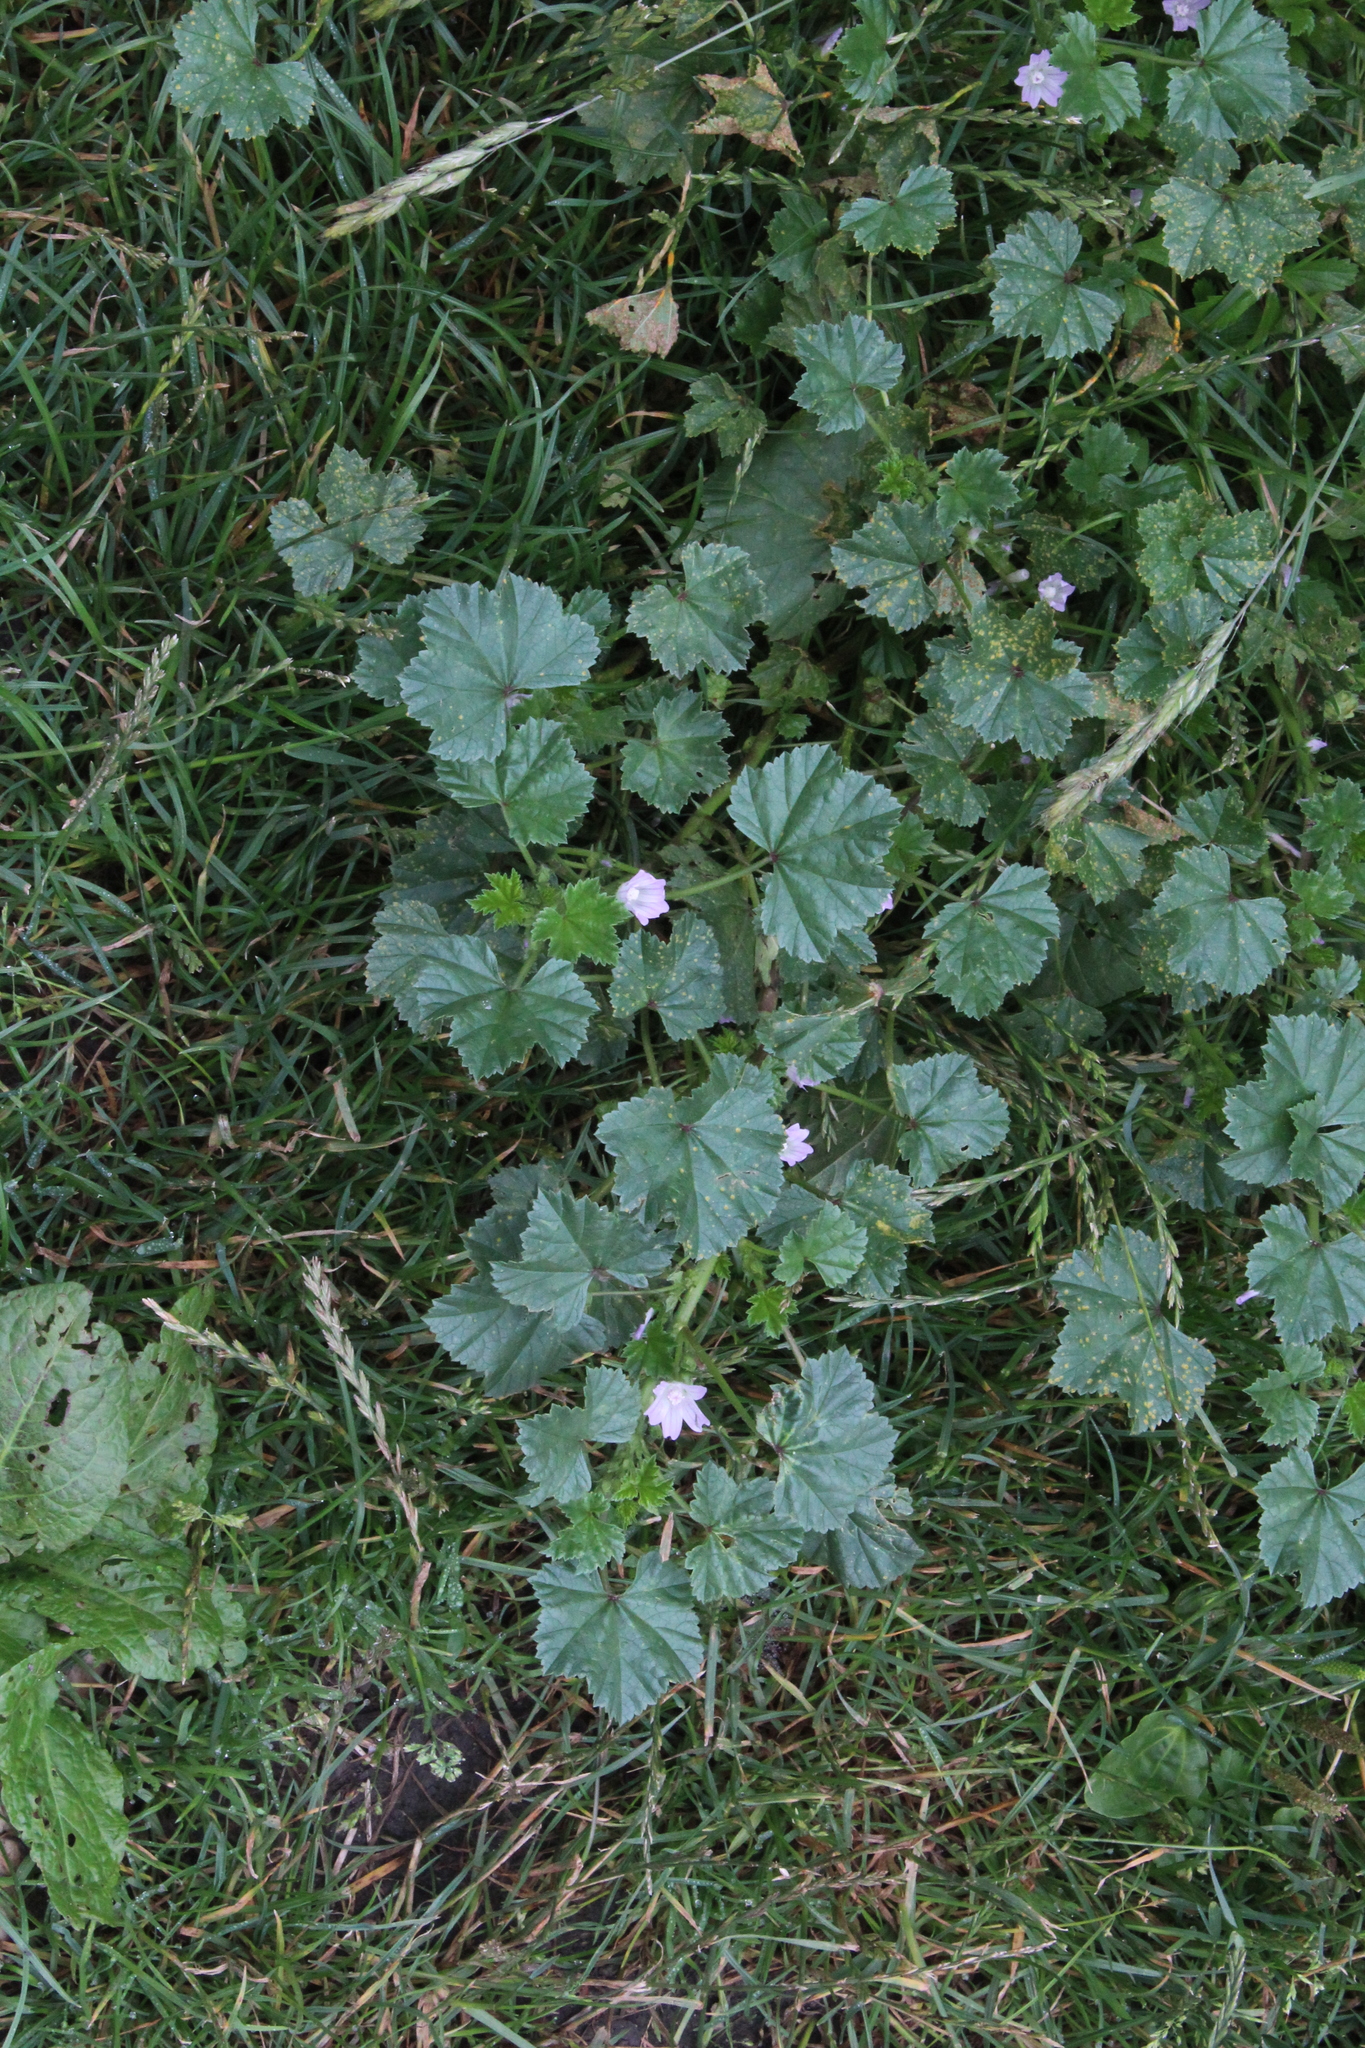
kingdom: Plantae
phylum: Tracheophyta
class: Magnoliopsida
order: Malvales
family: Malvaceae
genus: Malva
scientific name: Malva neglecta
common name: Common mallow
